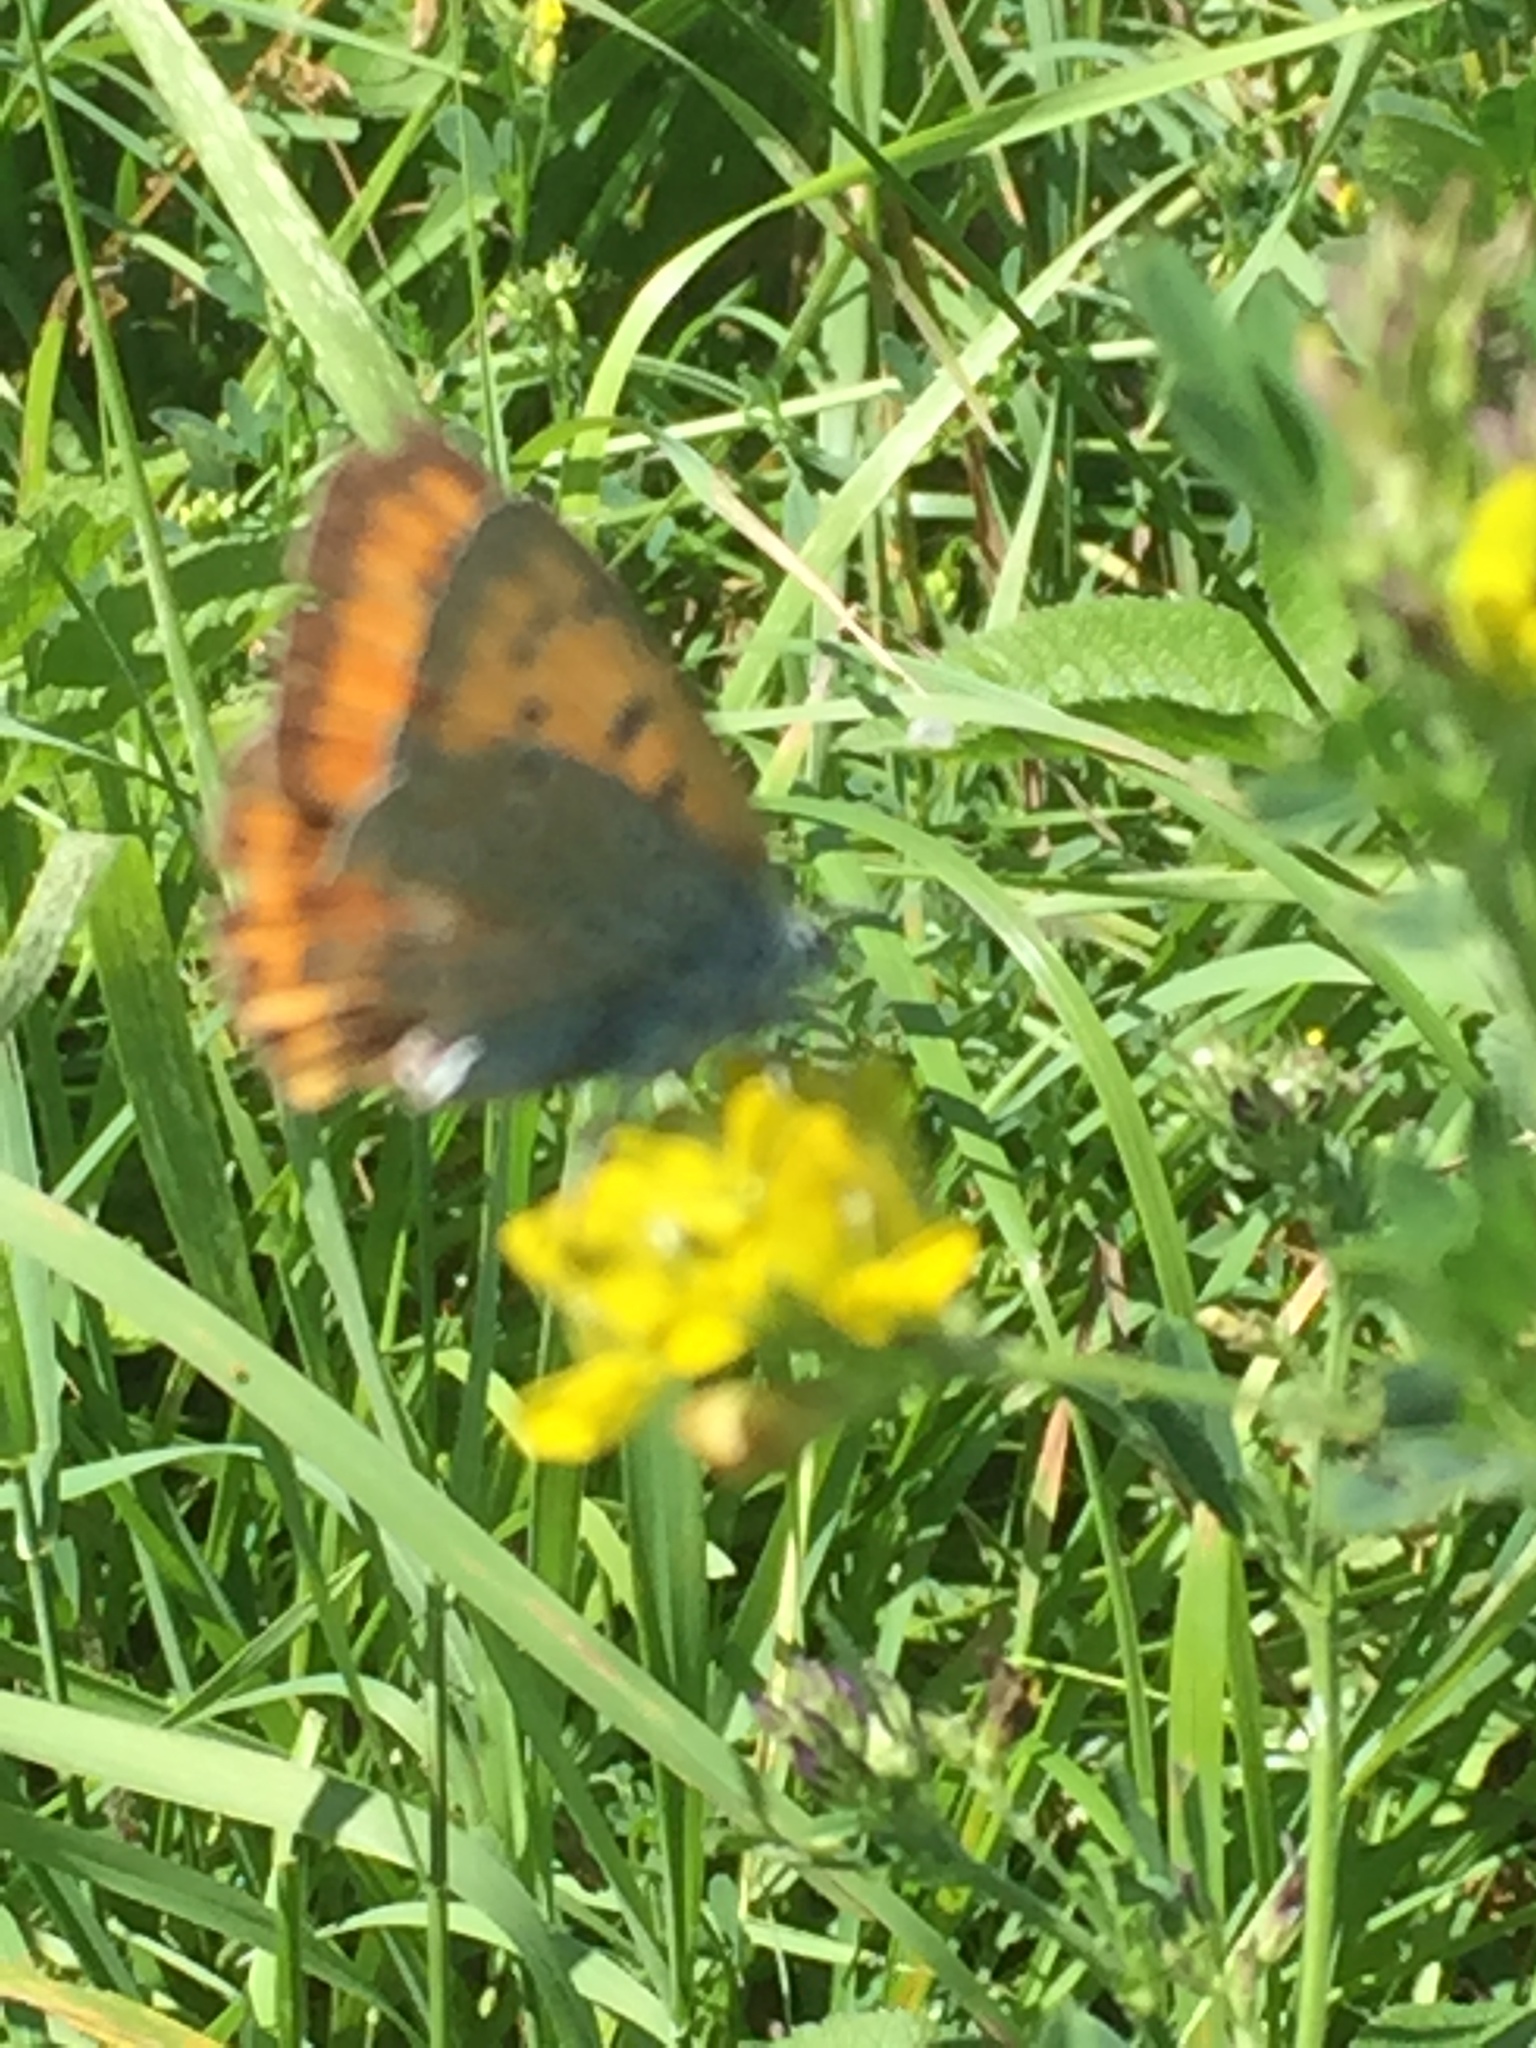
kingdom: Animalia
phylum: Arthropoda
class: Insecta
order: Lepidoptera
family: Lycaenidae
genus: Lycaena
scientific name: Lycaena dispar
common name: Large copper
